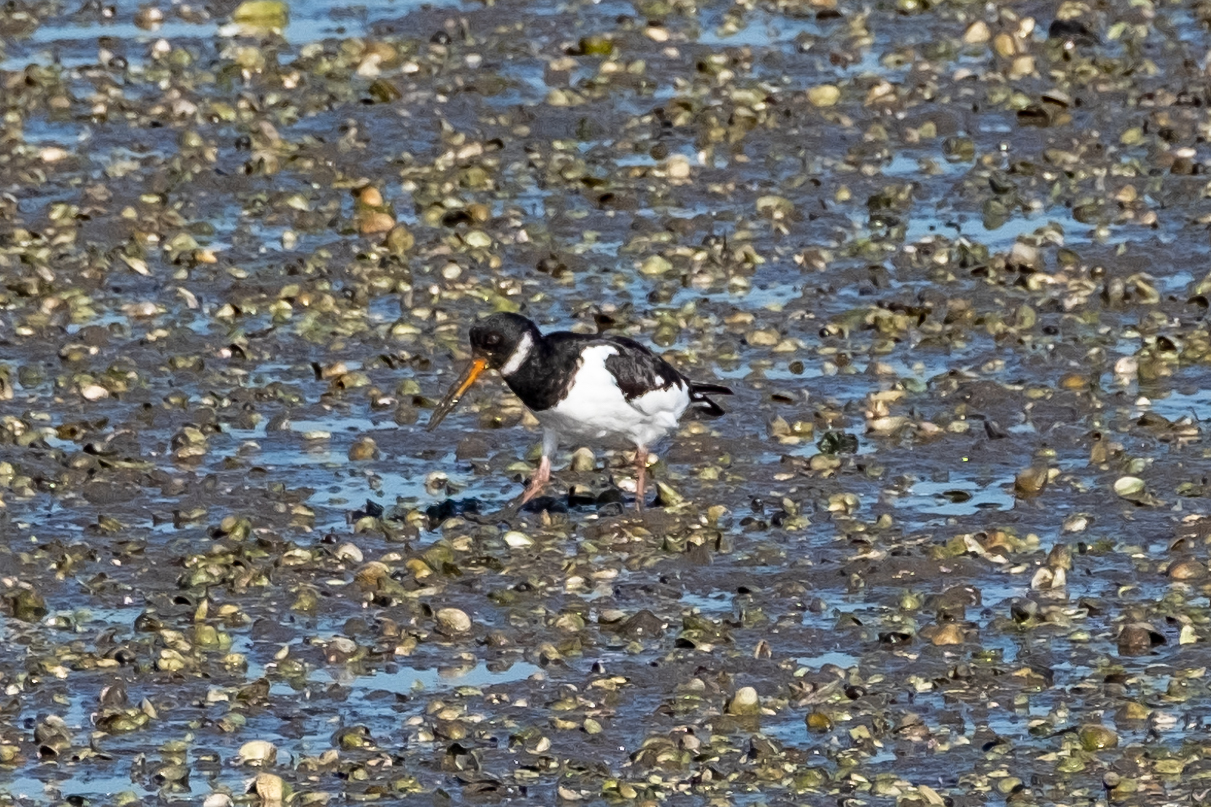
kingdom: Animalia
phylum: Chordata
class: Aves
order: Charadriiformes
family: Haematopodidae
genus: Haematopus
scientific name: Haematopus ostralegus
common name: Eurasian oystercatcher
